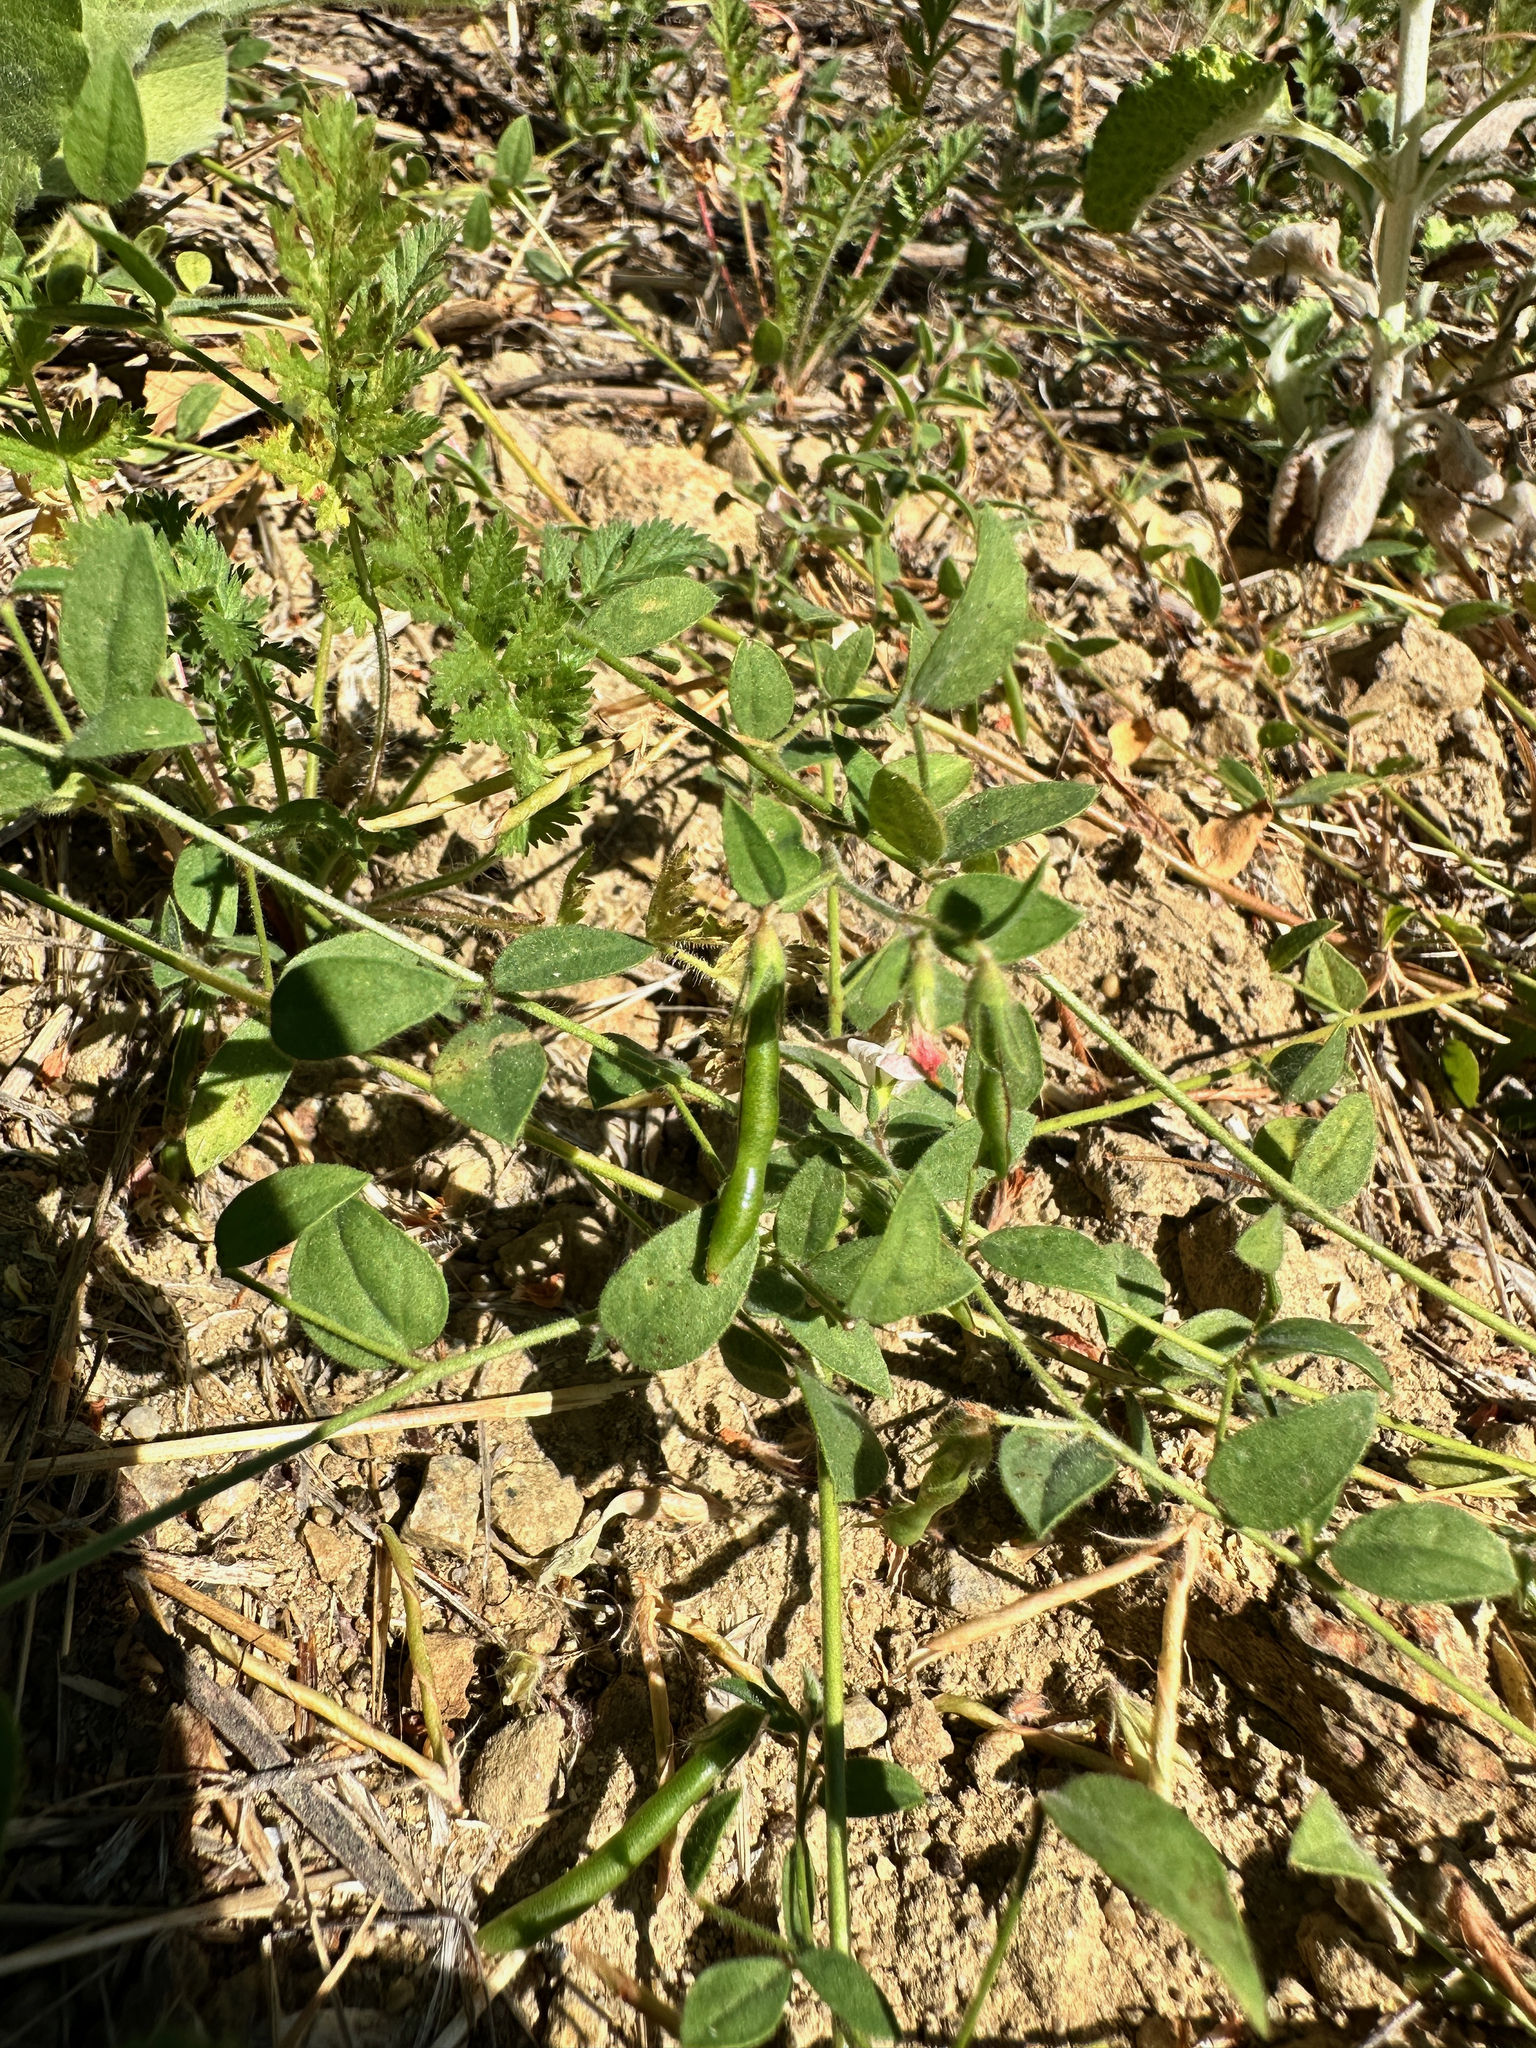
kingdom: Plantae
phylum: Tracheophyta
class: Magnoliopsida
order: Fabales
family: Fabaceae
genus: Acmispon
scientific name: Acmispon americanus
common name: American bird's-foot trefoil
